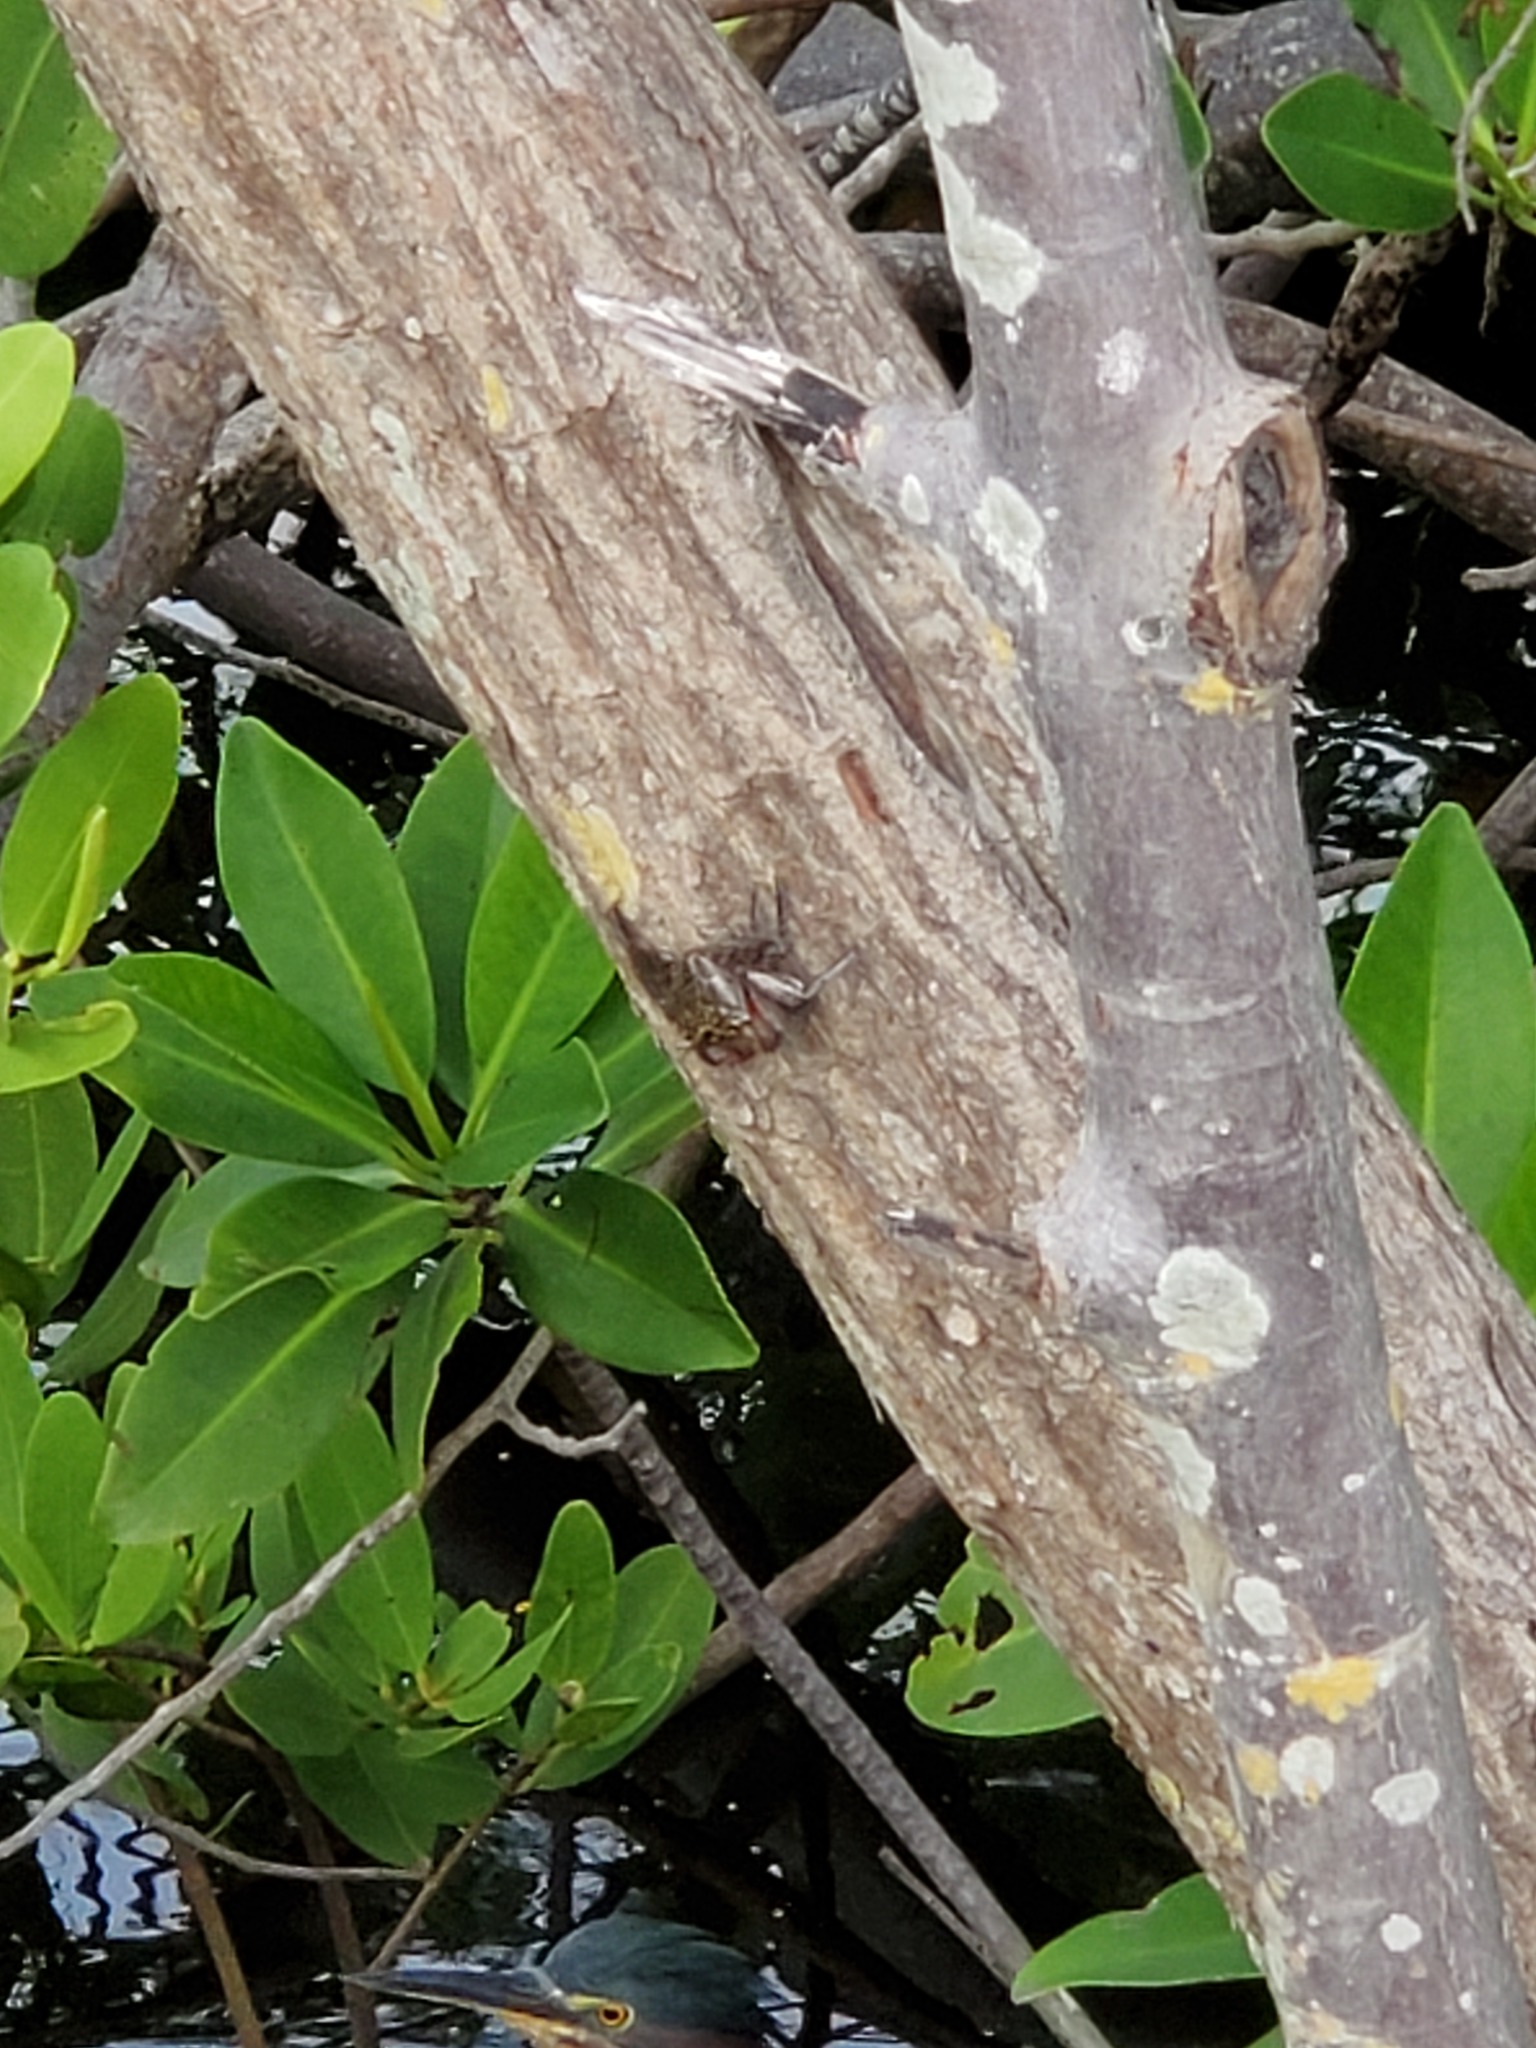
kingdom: Animalia
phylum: Arthropoda
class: Malacostraca
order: Decapoda
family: Sesarmidae
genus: Aratus
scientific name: Aratus pisonii
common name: Mangrove crab
